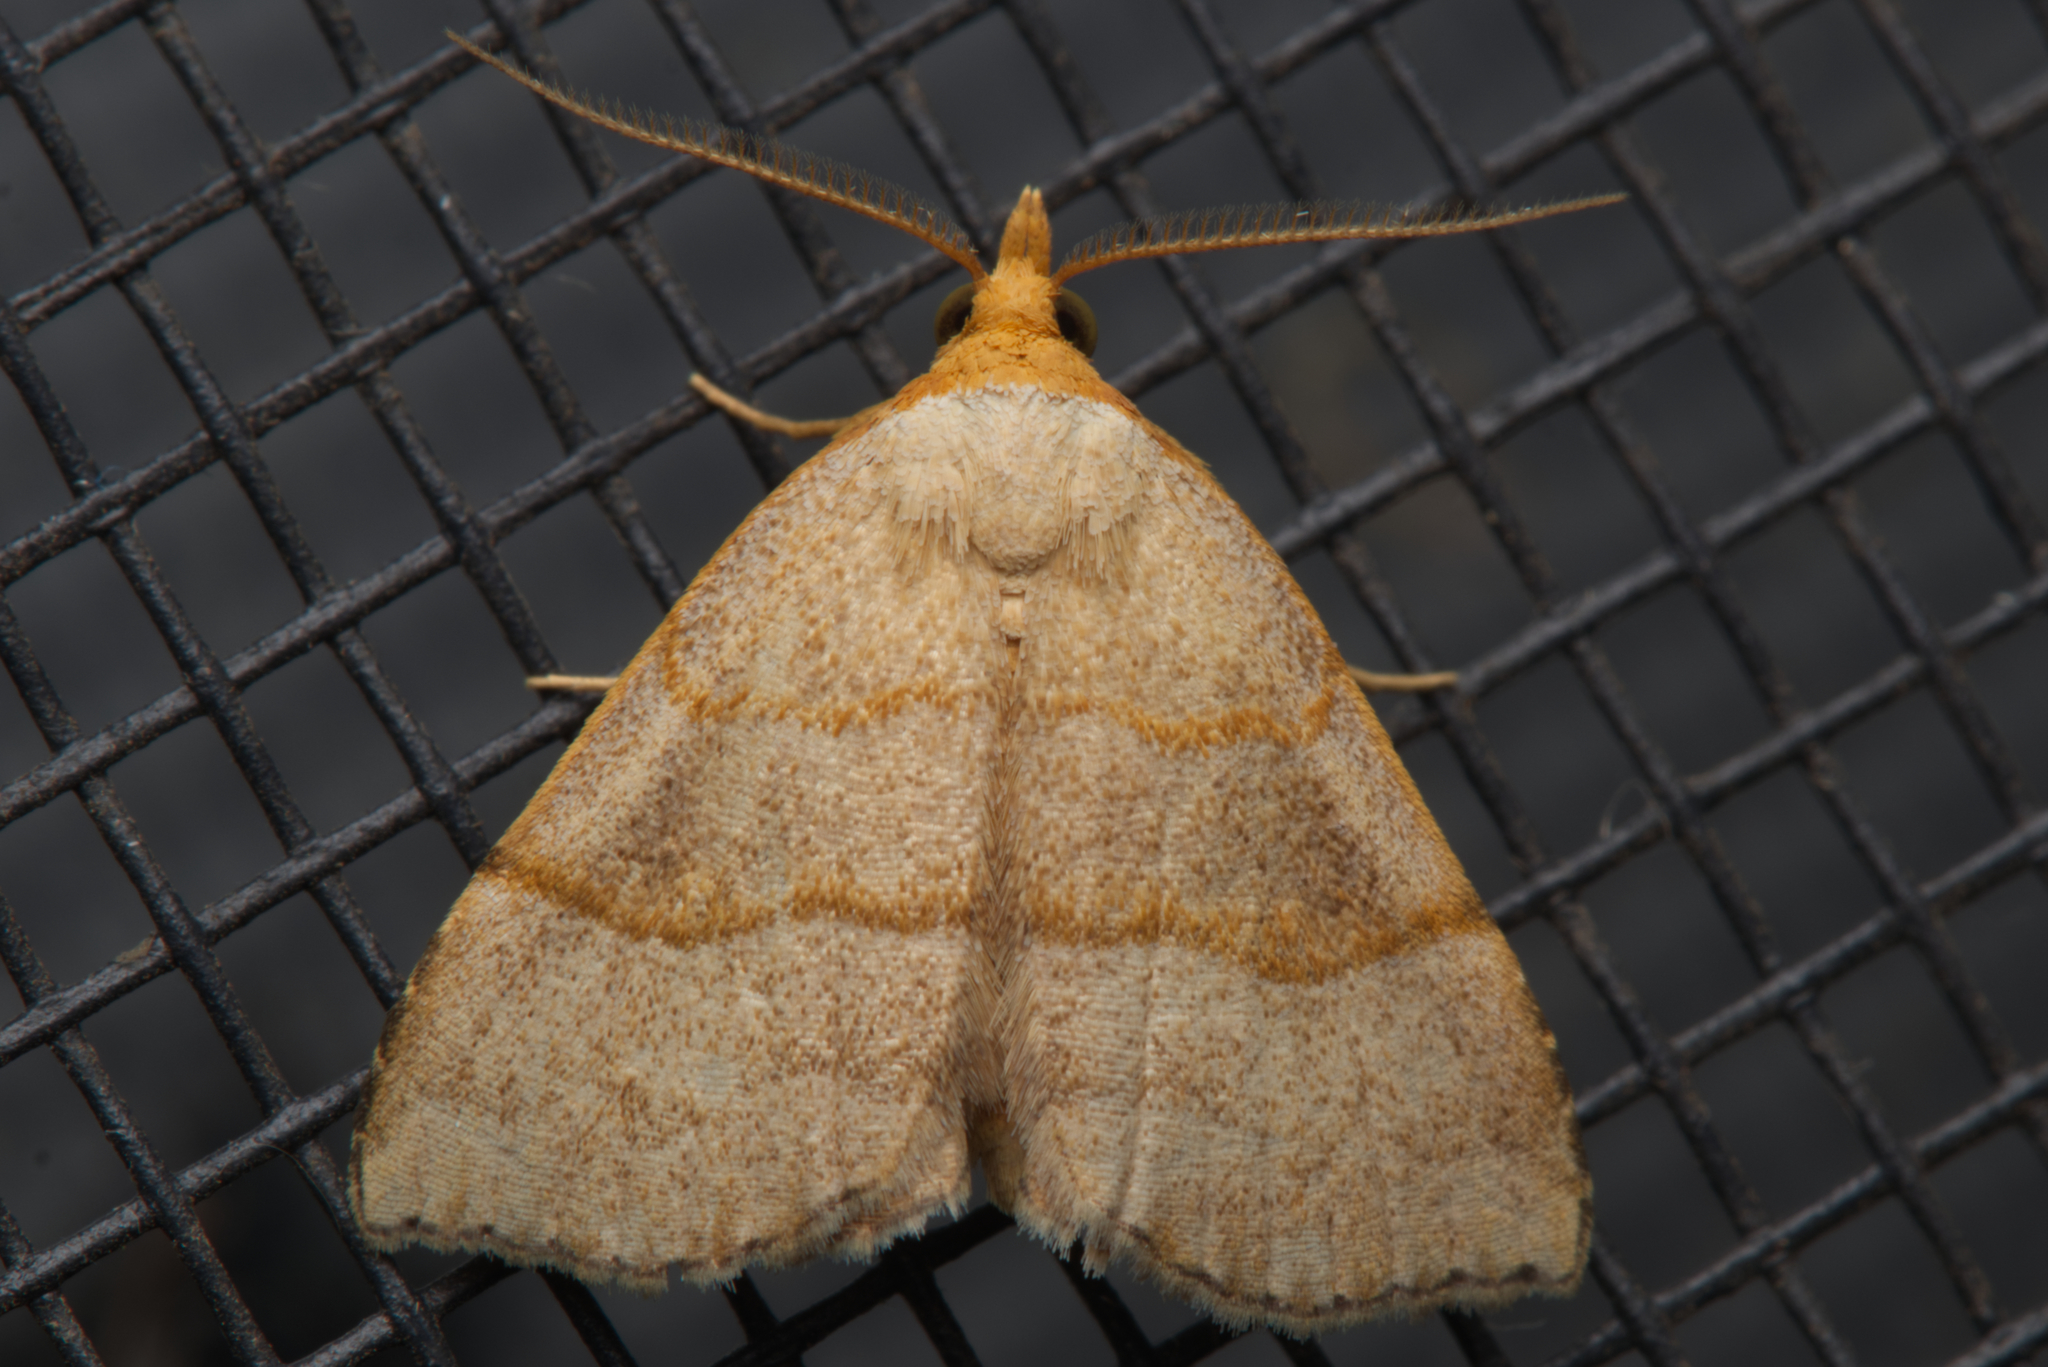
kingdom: Animalia
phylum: Arthropoda
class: Insecta
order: Lepidoptera
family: Erebidae
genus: Meranda
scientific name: Meranda susialis
